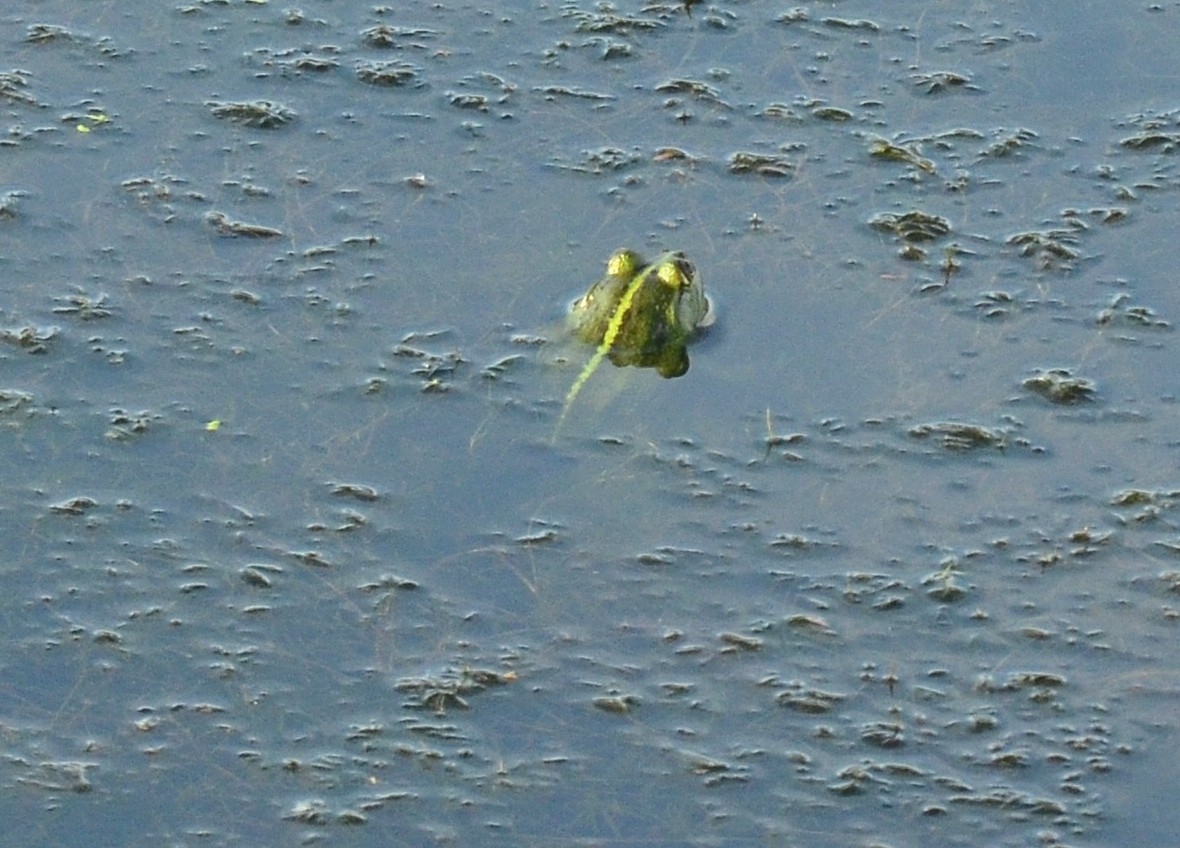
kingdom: Animalia
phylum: Chordata
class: Amphibia
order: Anura
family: Dicroglossidae
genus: Euphlyctis
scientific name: Euphlyctis karaavali
